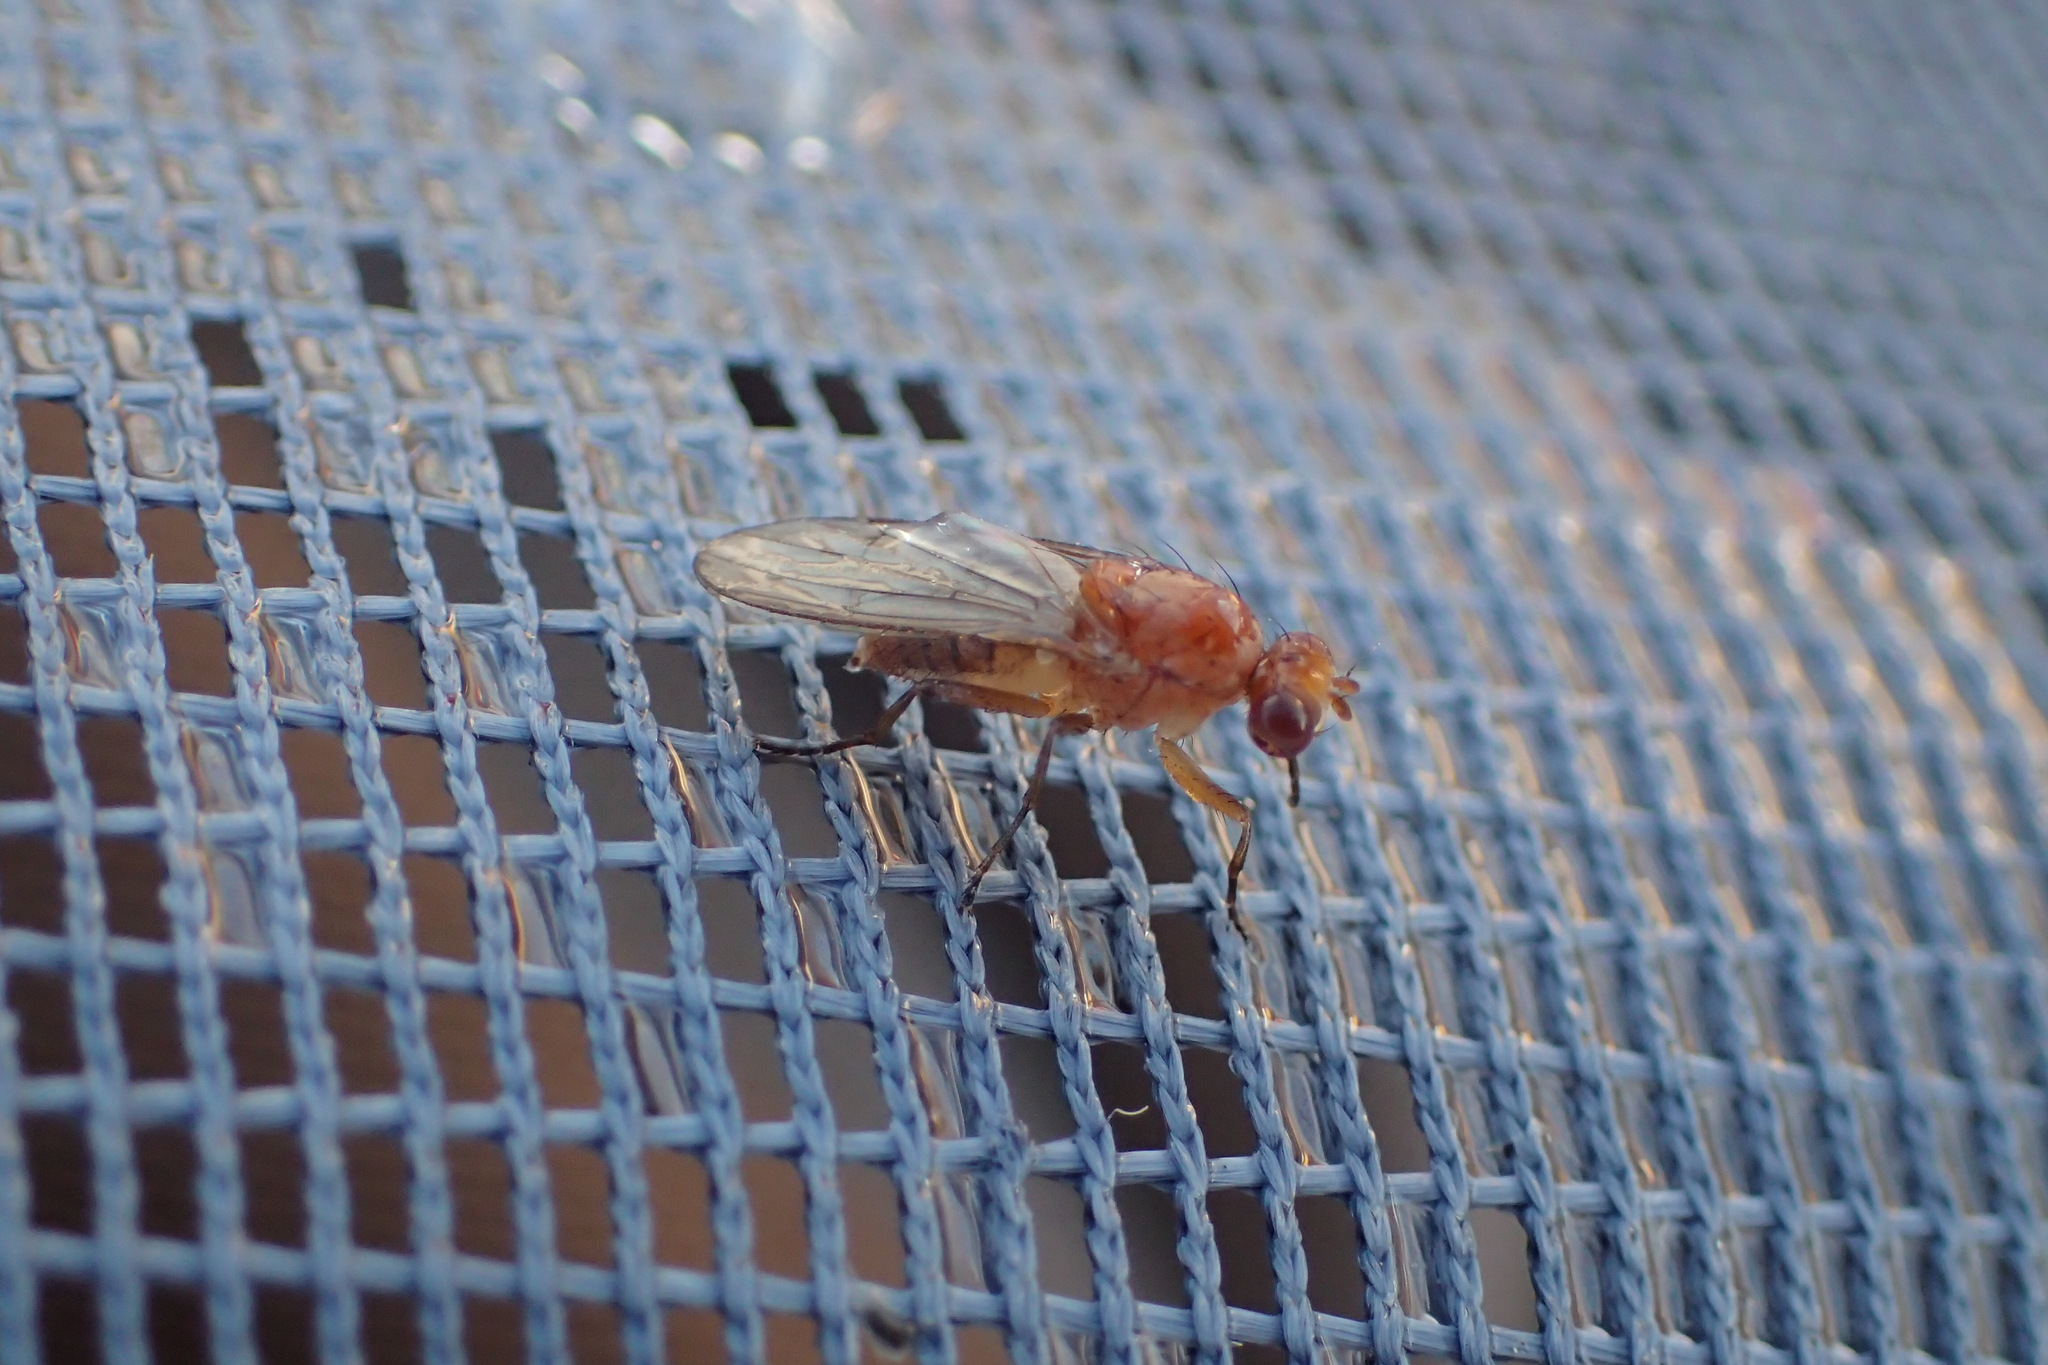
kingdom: Animalia
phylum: Arthropoda
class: Insecta
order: Diptera
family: Heleomyzidae
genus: Suillia
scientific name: Suillia convergens
